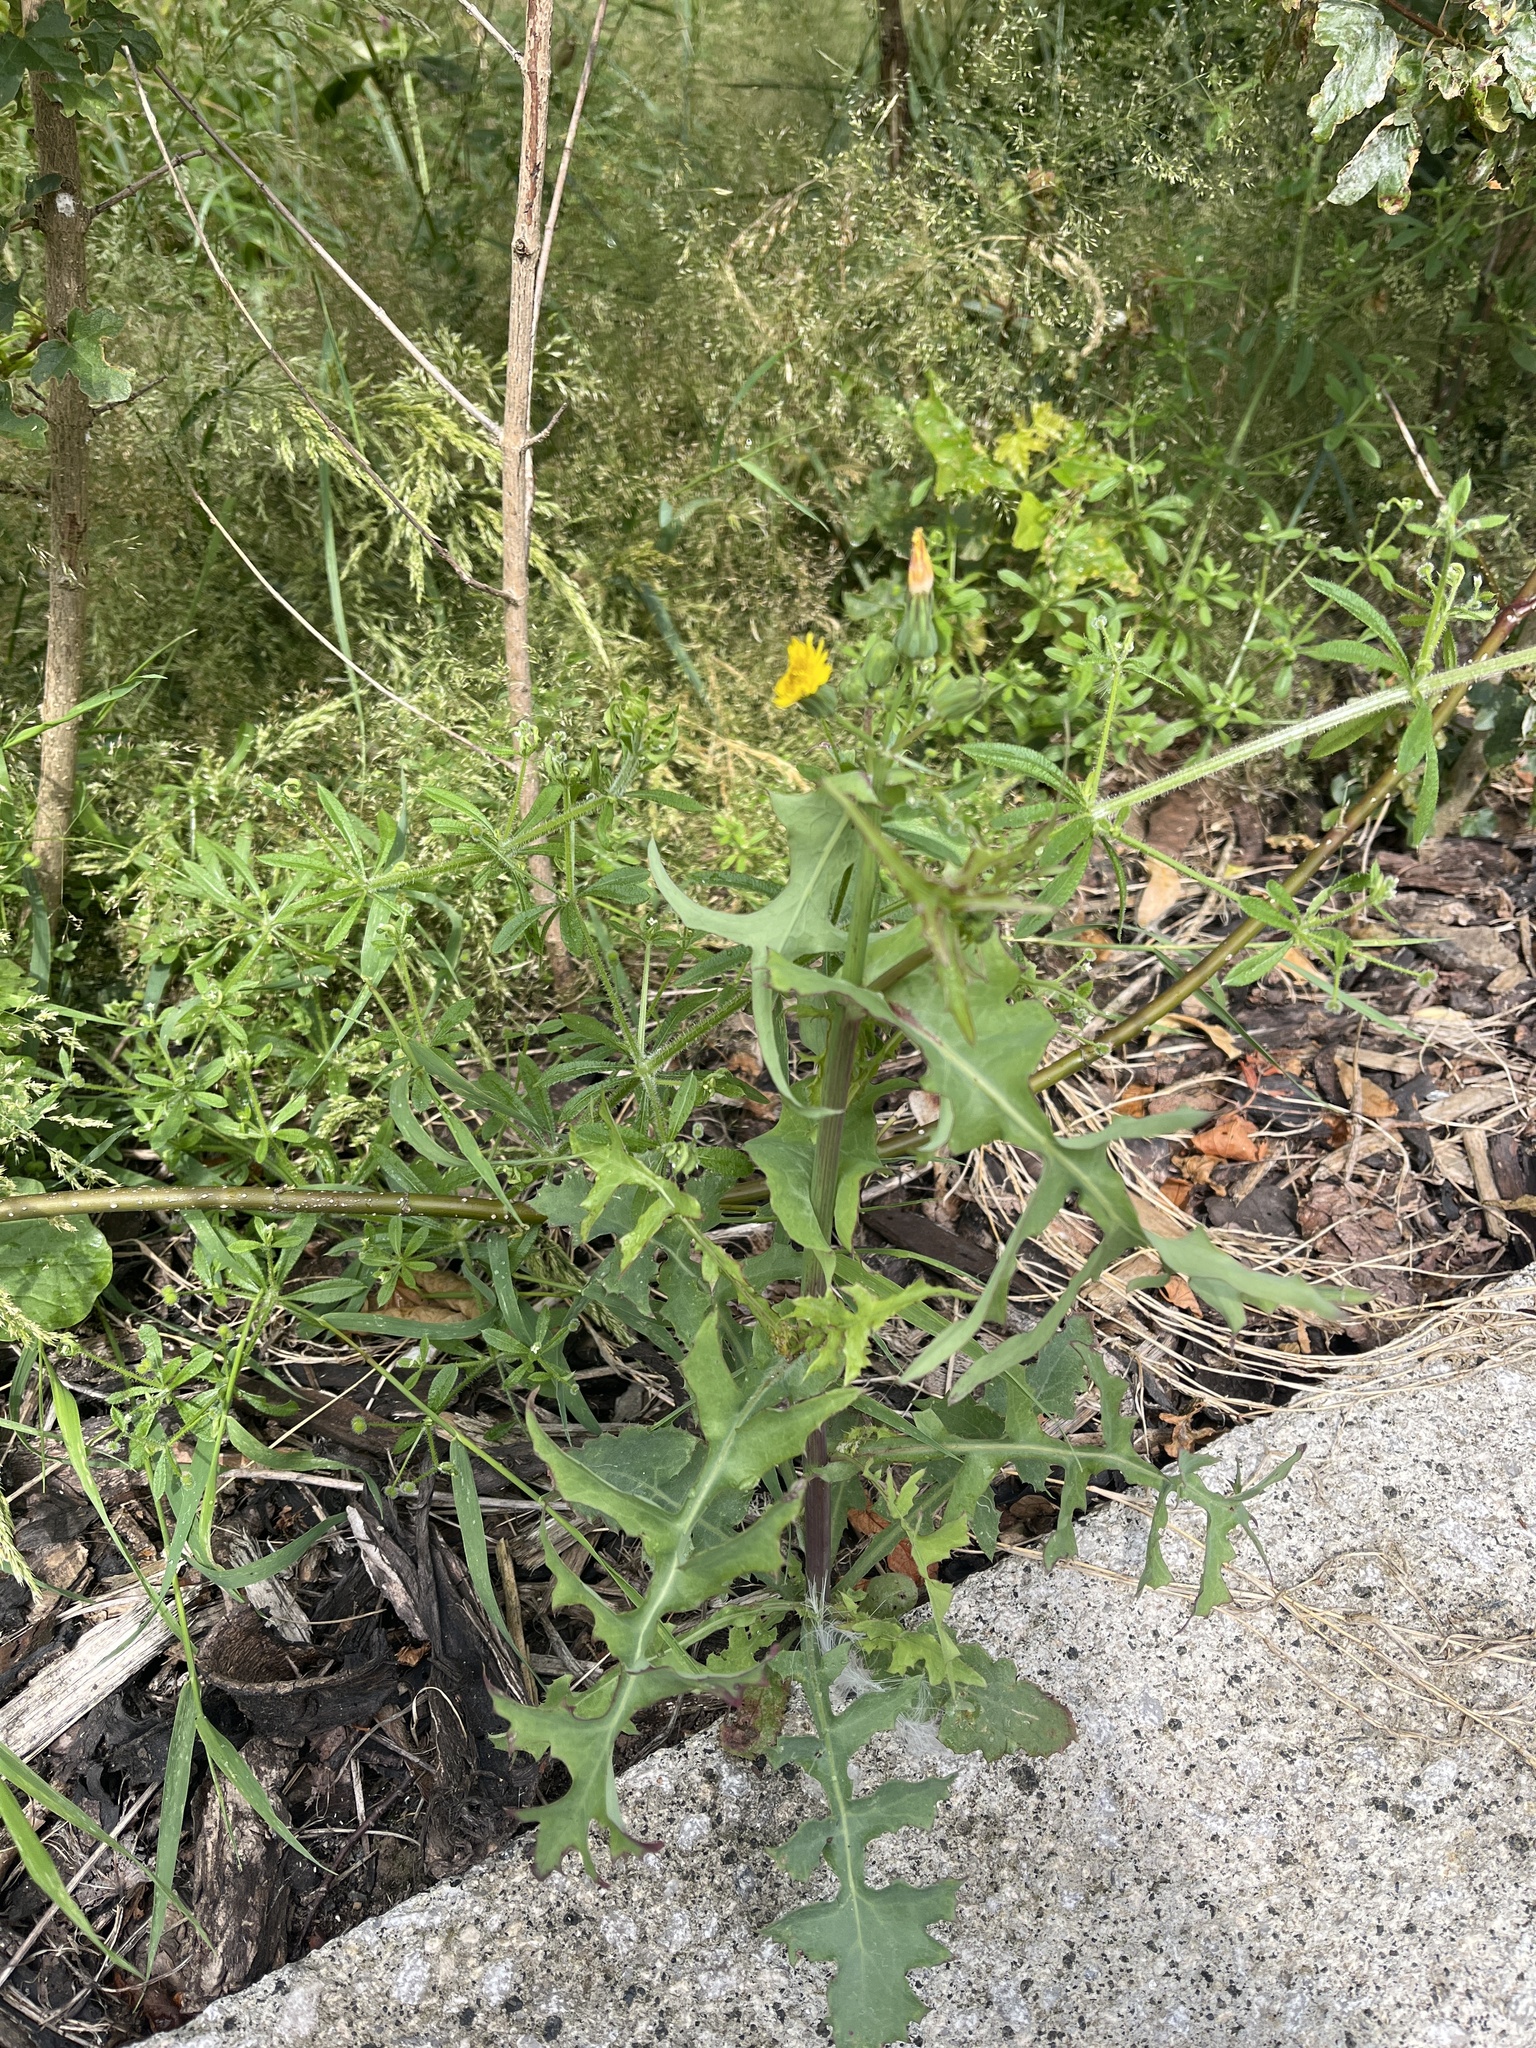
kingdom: Plantae
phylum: Tracheophyta
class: Magnoliopsida
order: Asterales
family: Asteraceae
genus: Sonchus
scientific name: Sonchus oleraceus
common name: Common sowthistle
